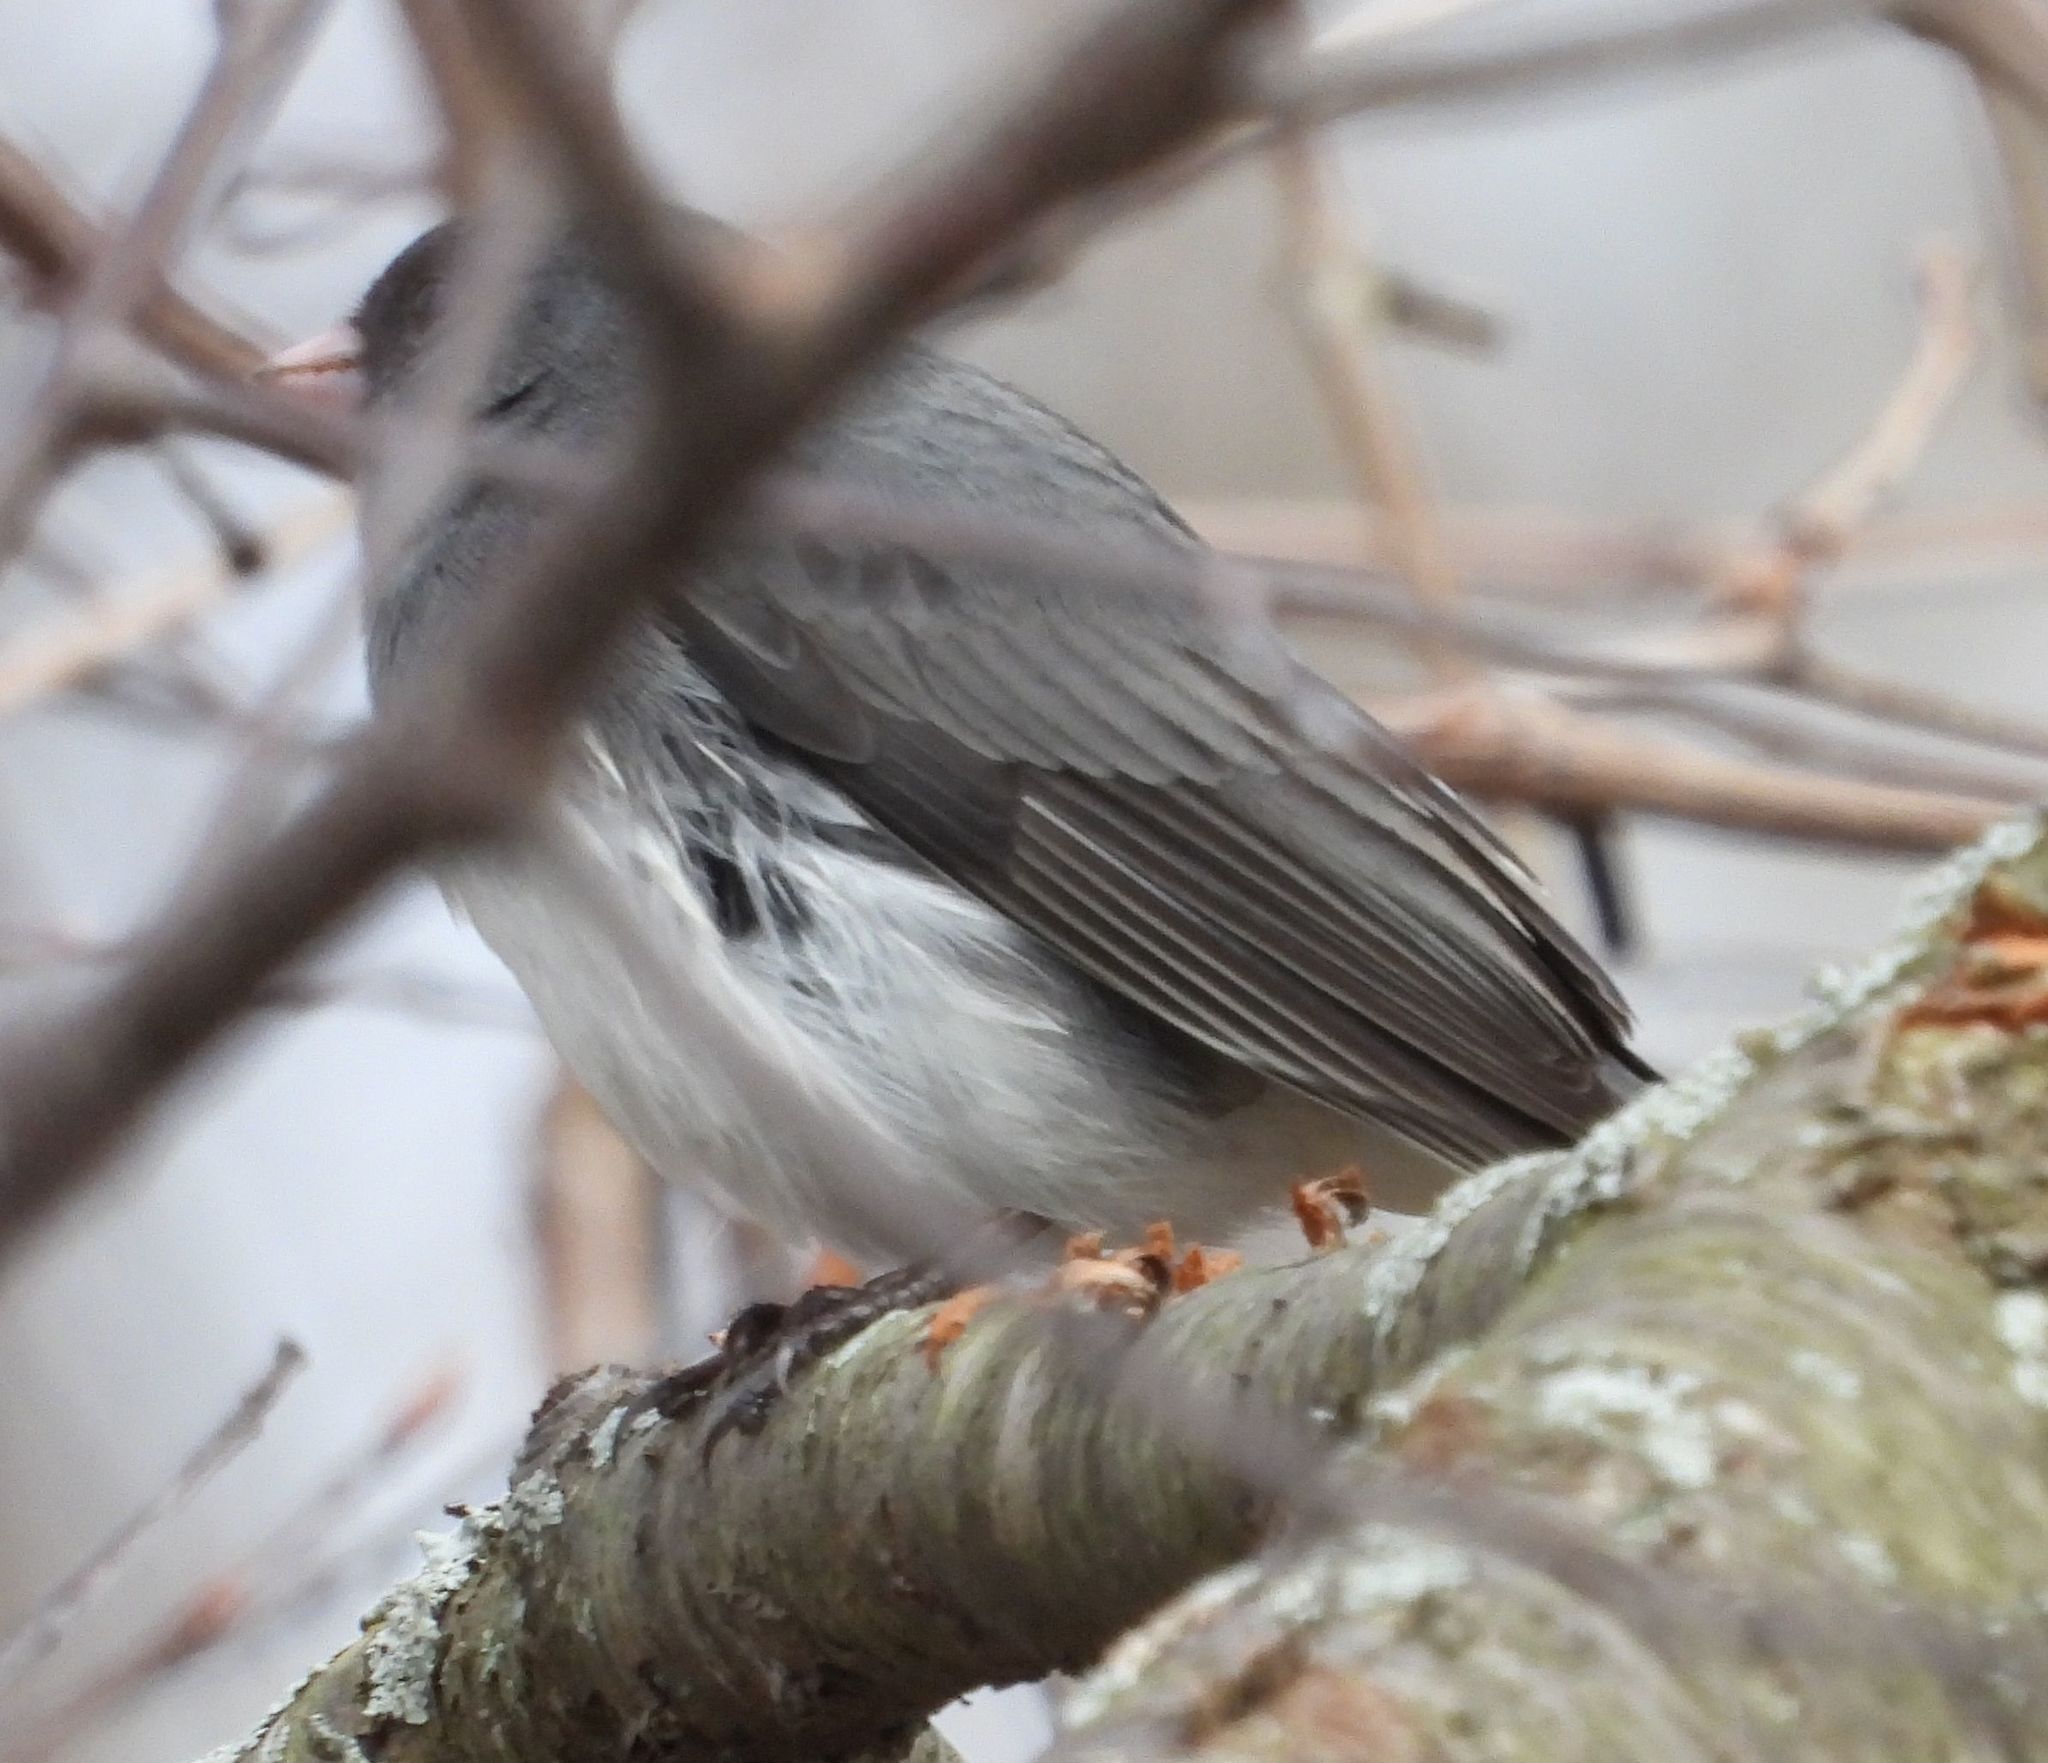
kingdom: Animalia
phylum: Chordata
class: Aves
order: Passeriformes
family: Passerellidae
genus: Junco
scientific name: Junco hyemalis
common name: Dark-eyed junco
